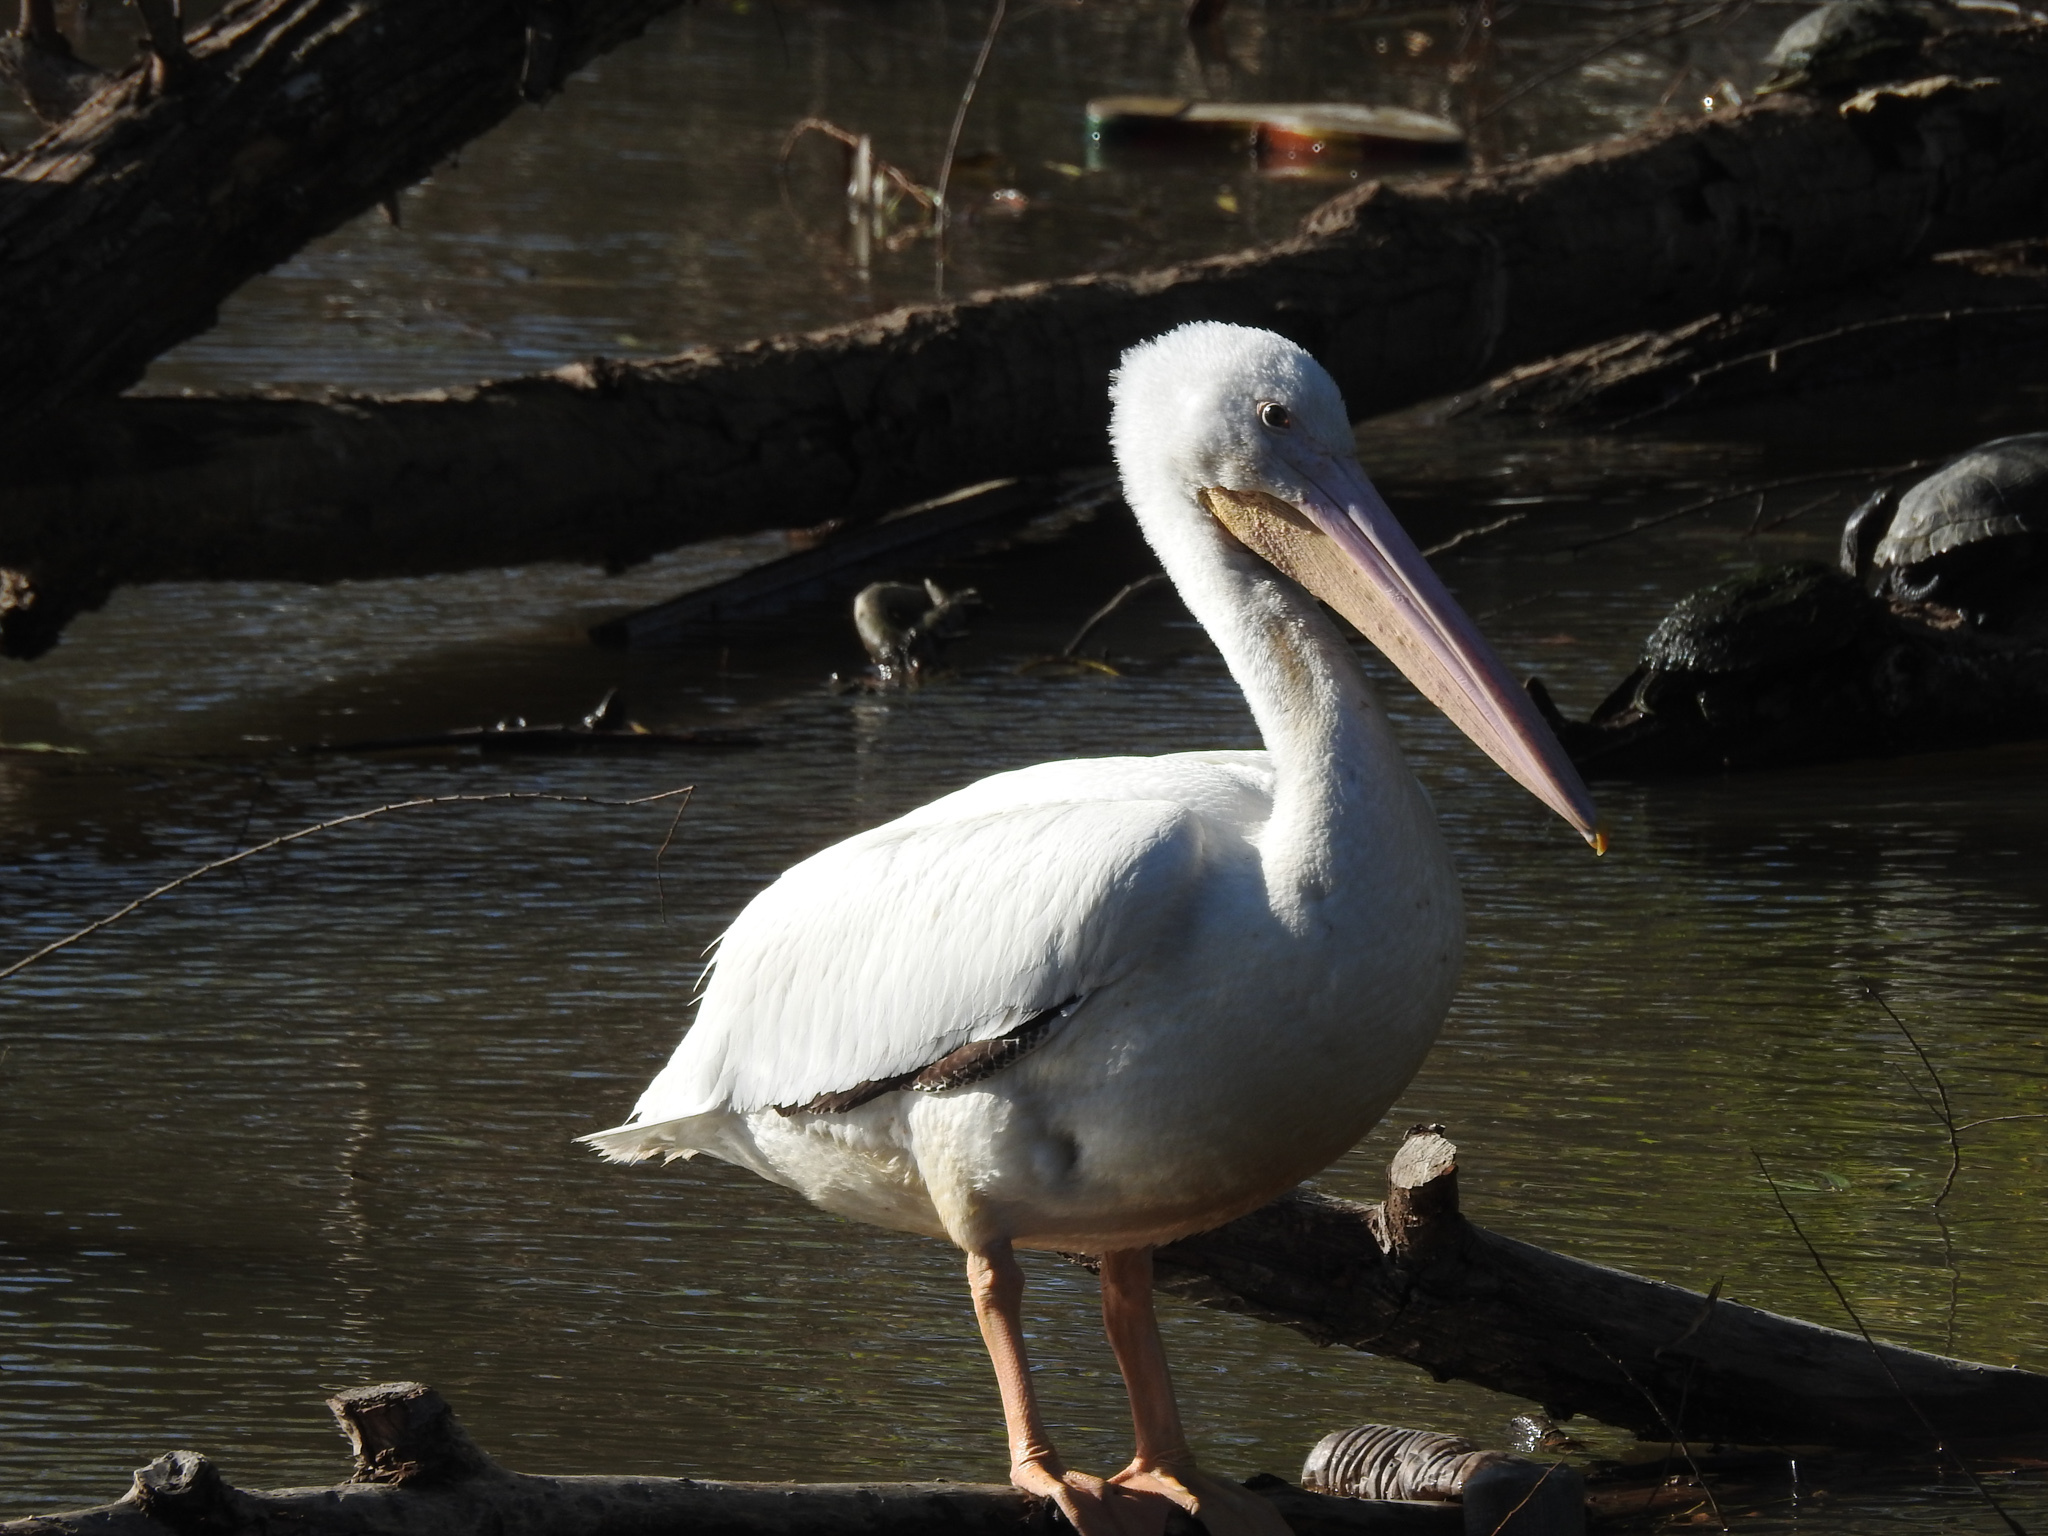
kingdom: Animalia
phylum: Chordata
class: Aves
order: Pelecaniformes
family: Pelecanidae
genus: Pelecanus
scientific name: Pelecanus erythrorhynchos
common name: American white pelican
